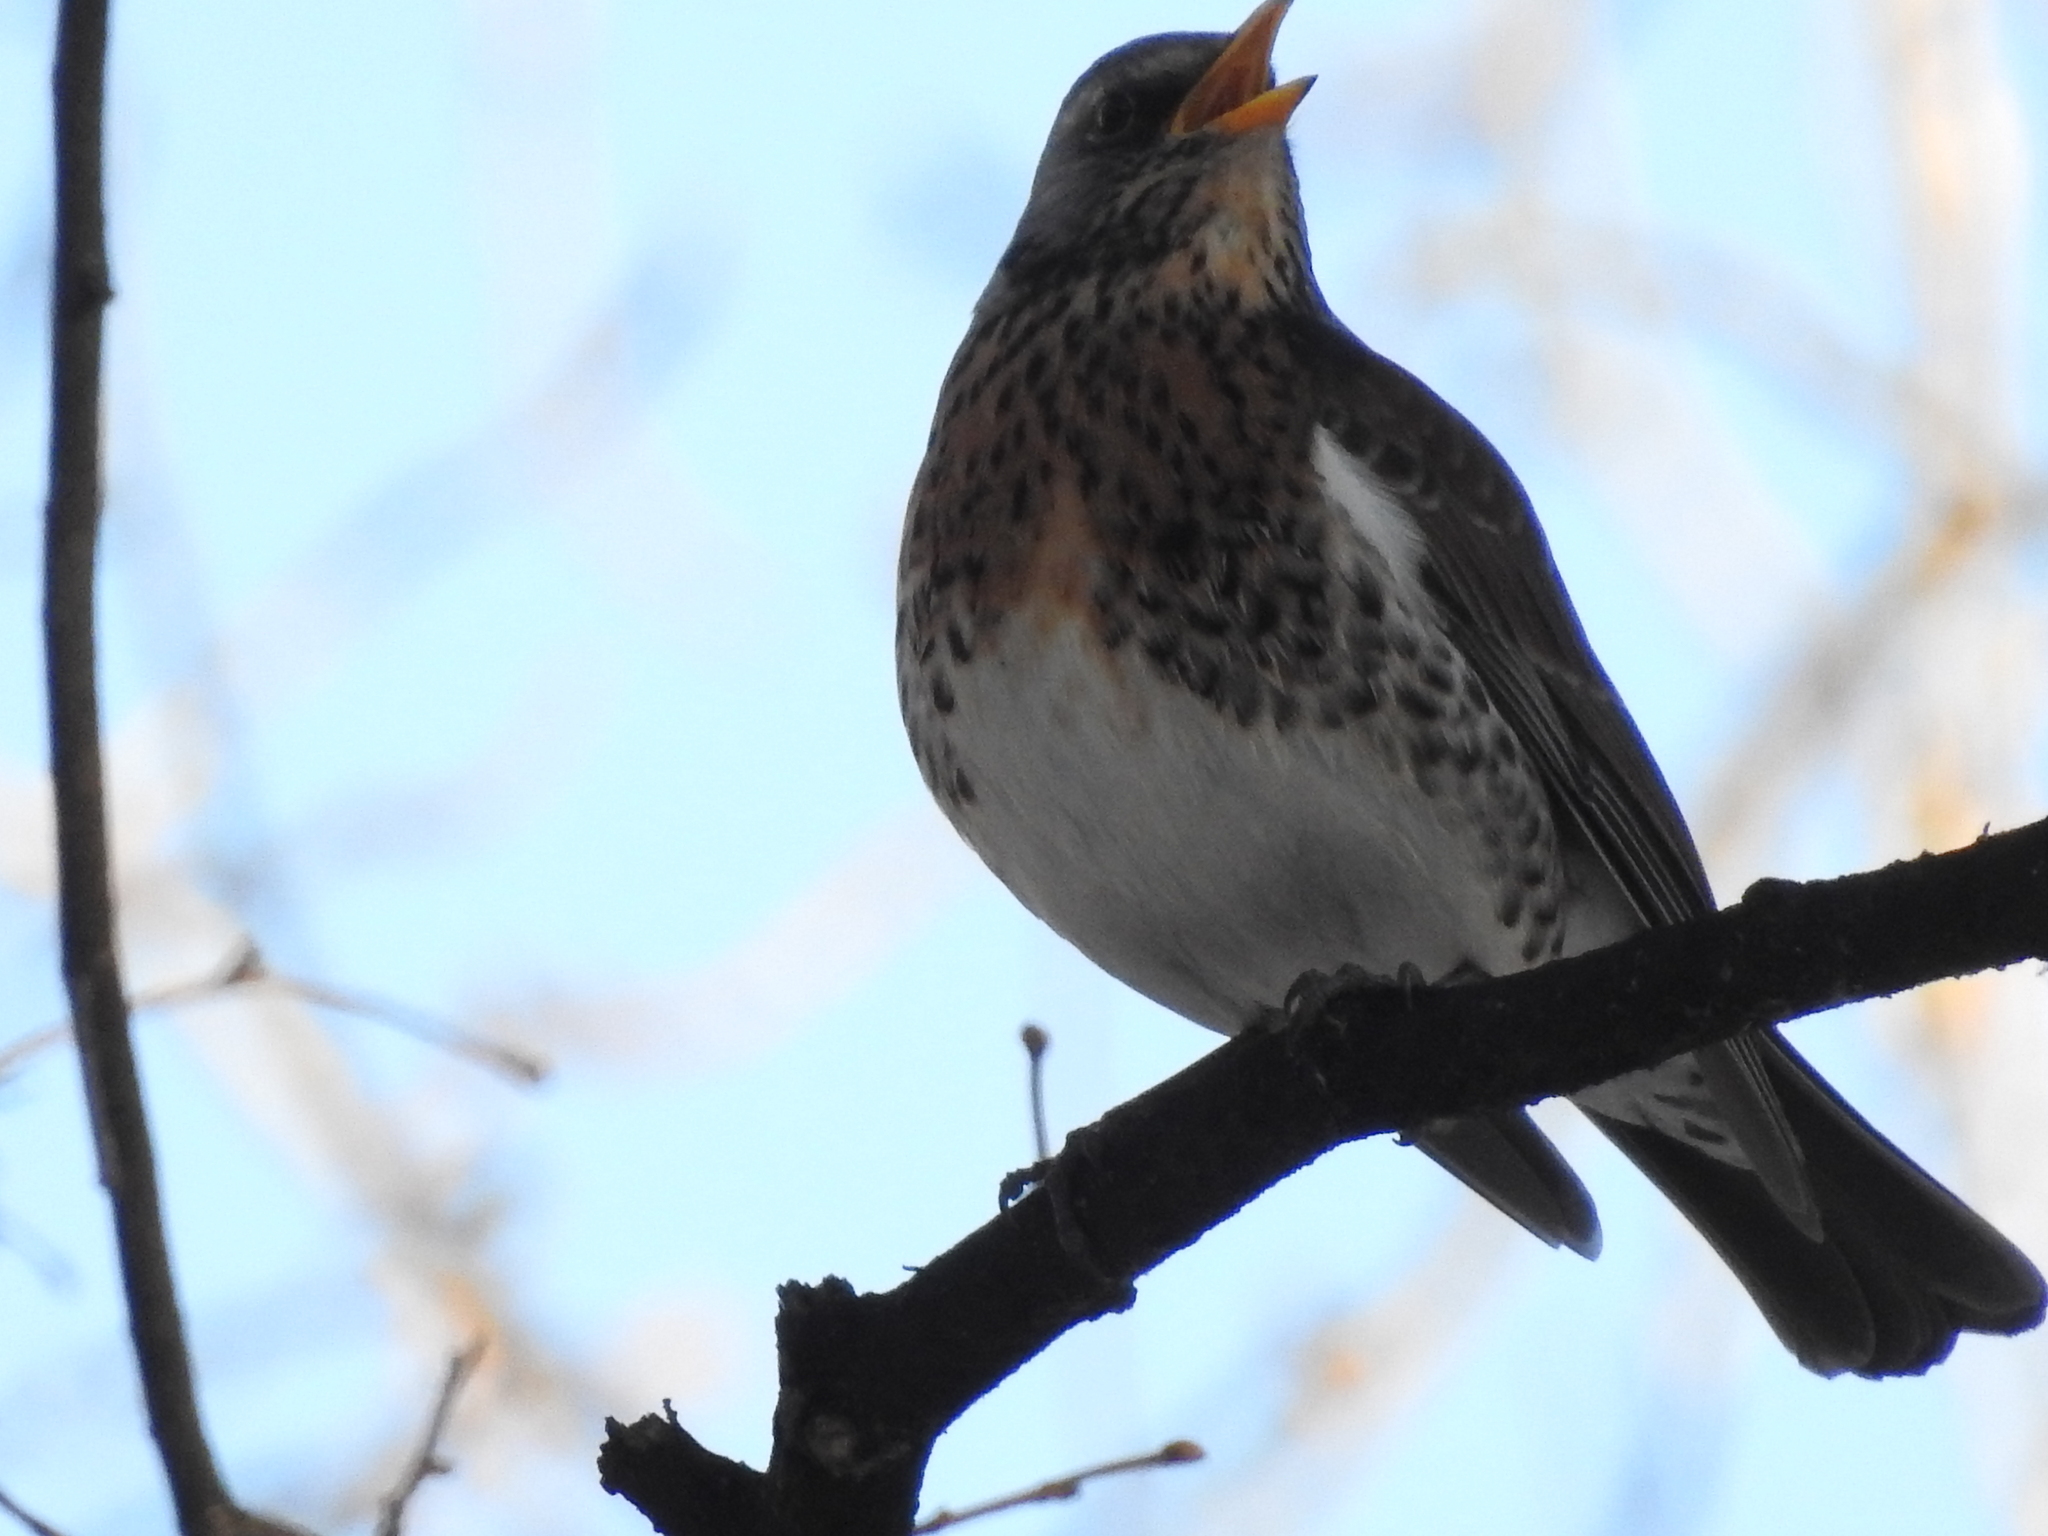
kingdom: Animalia
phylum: Chordata
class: Aves
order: Passeriformes
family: Turdidae
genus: Turdus
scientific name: Turdus pilaris
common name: Fieldfare
